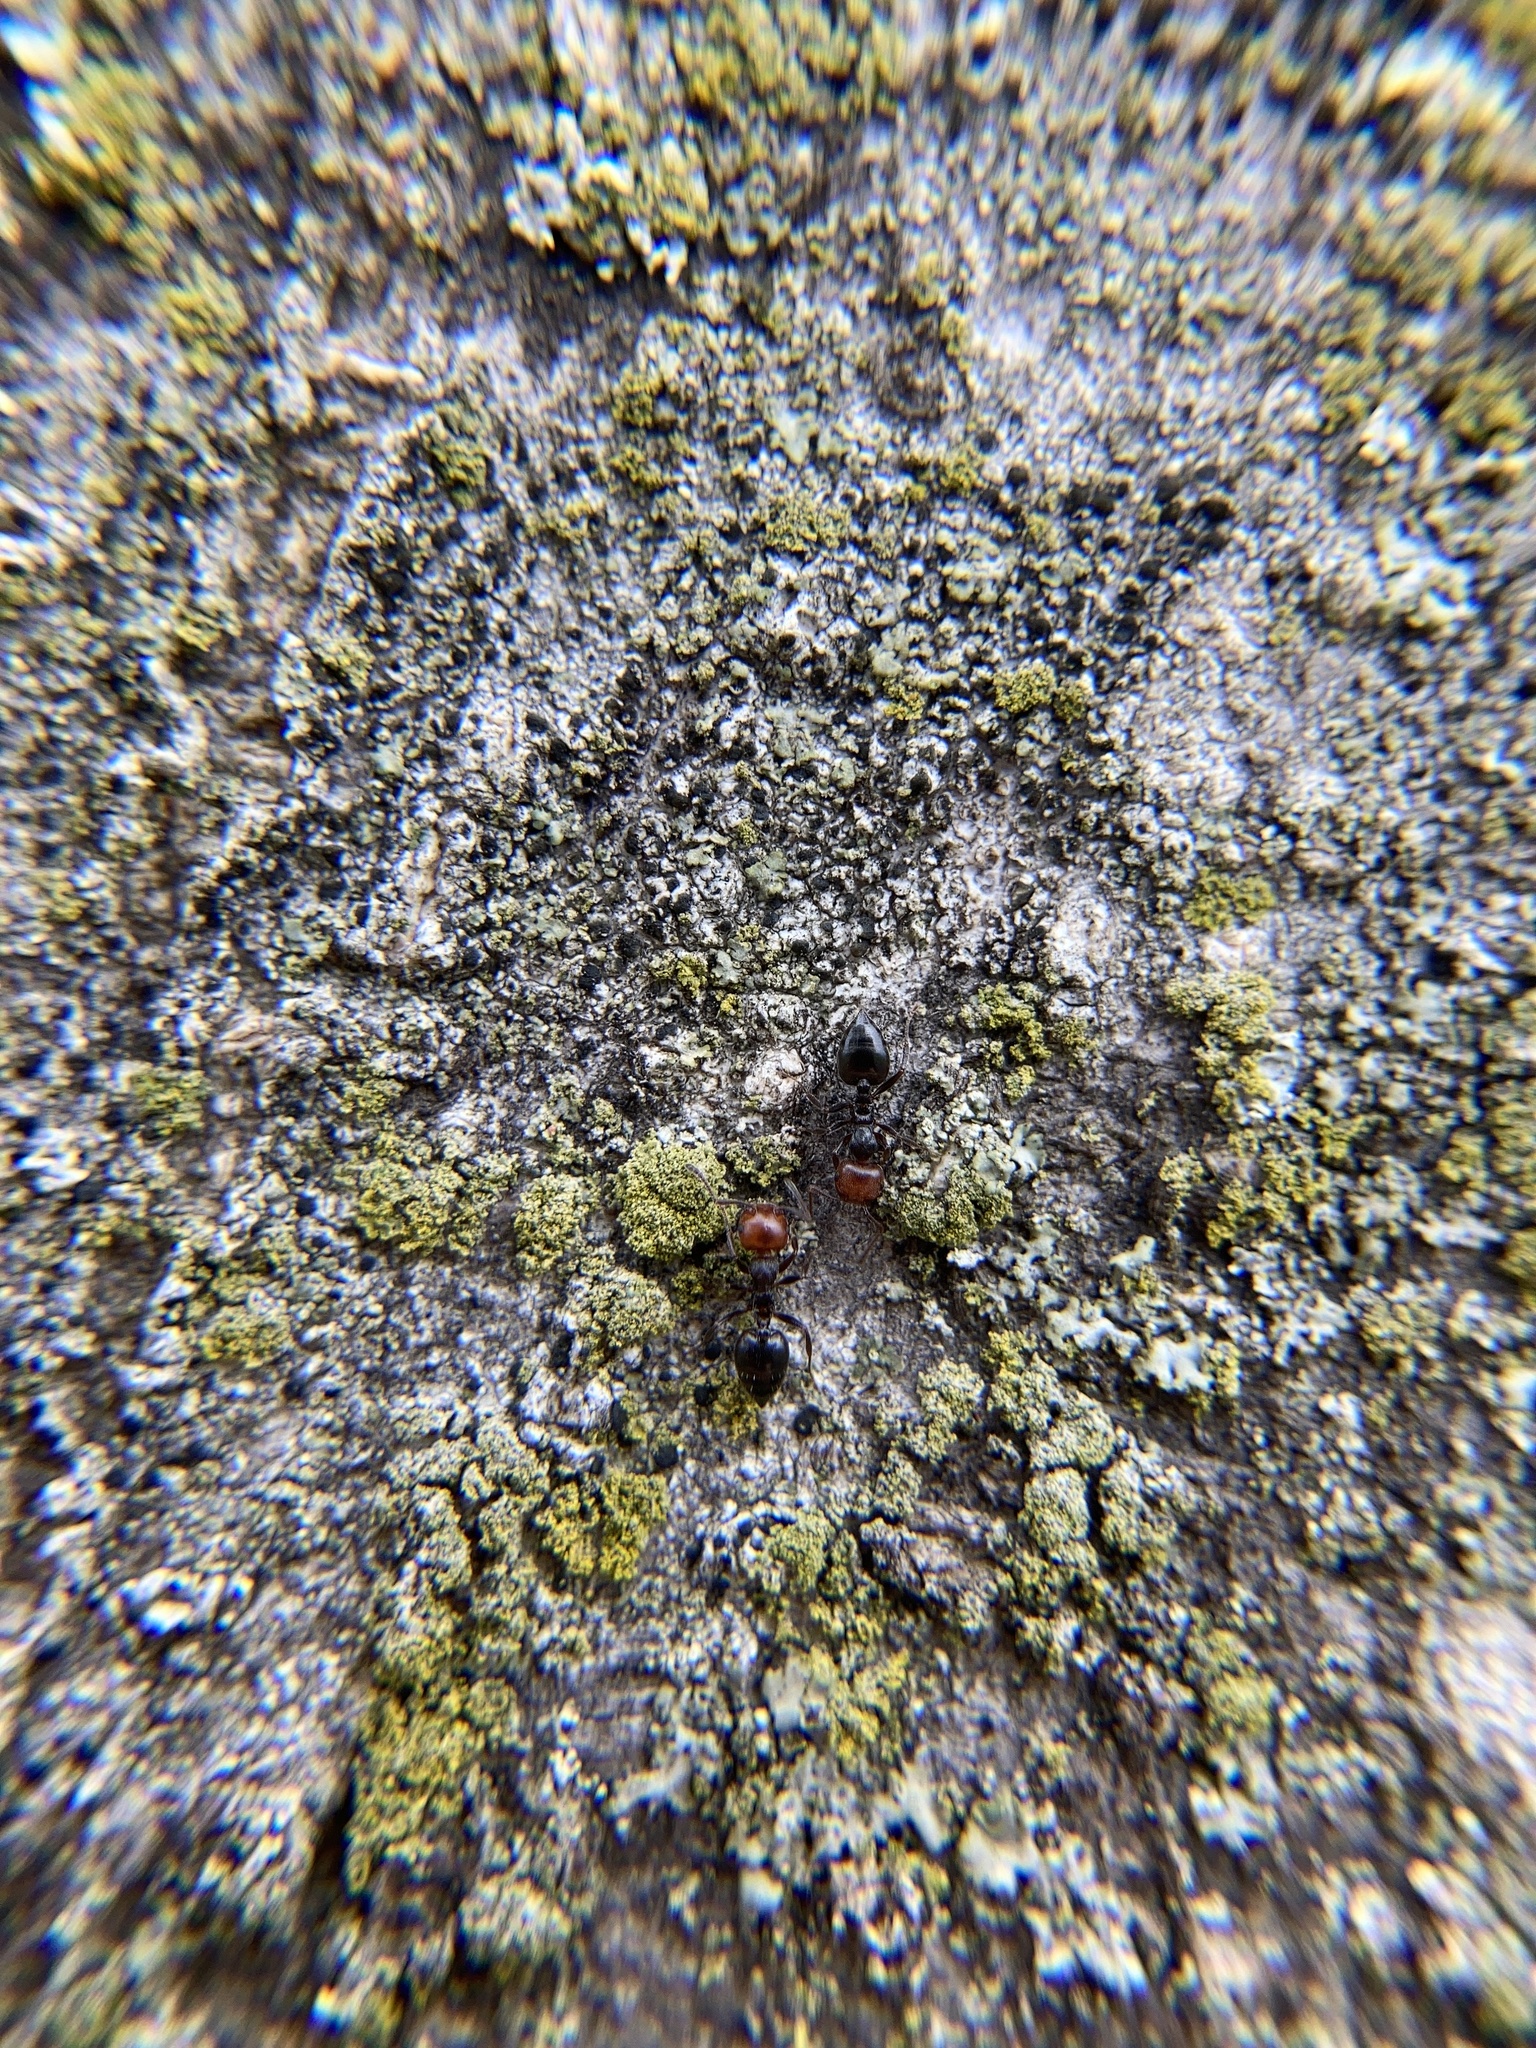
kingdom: Animalia
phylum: Arthropoda
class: Insecta
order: Hymenoptera
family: Formicidae
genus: Crematogaster
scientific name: Crematogaster scutellaris
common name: Fourmi du liège
